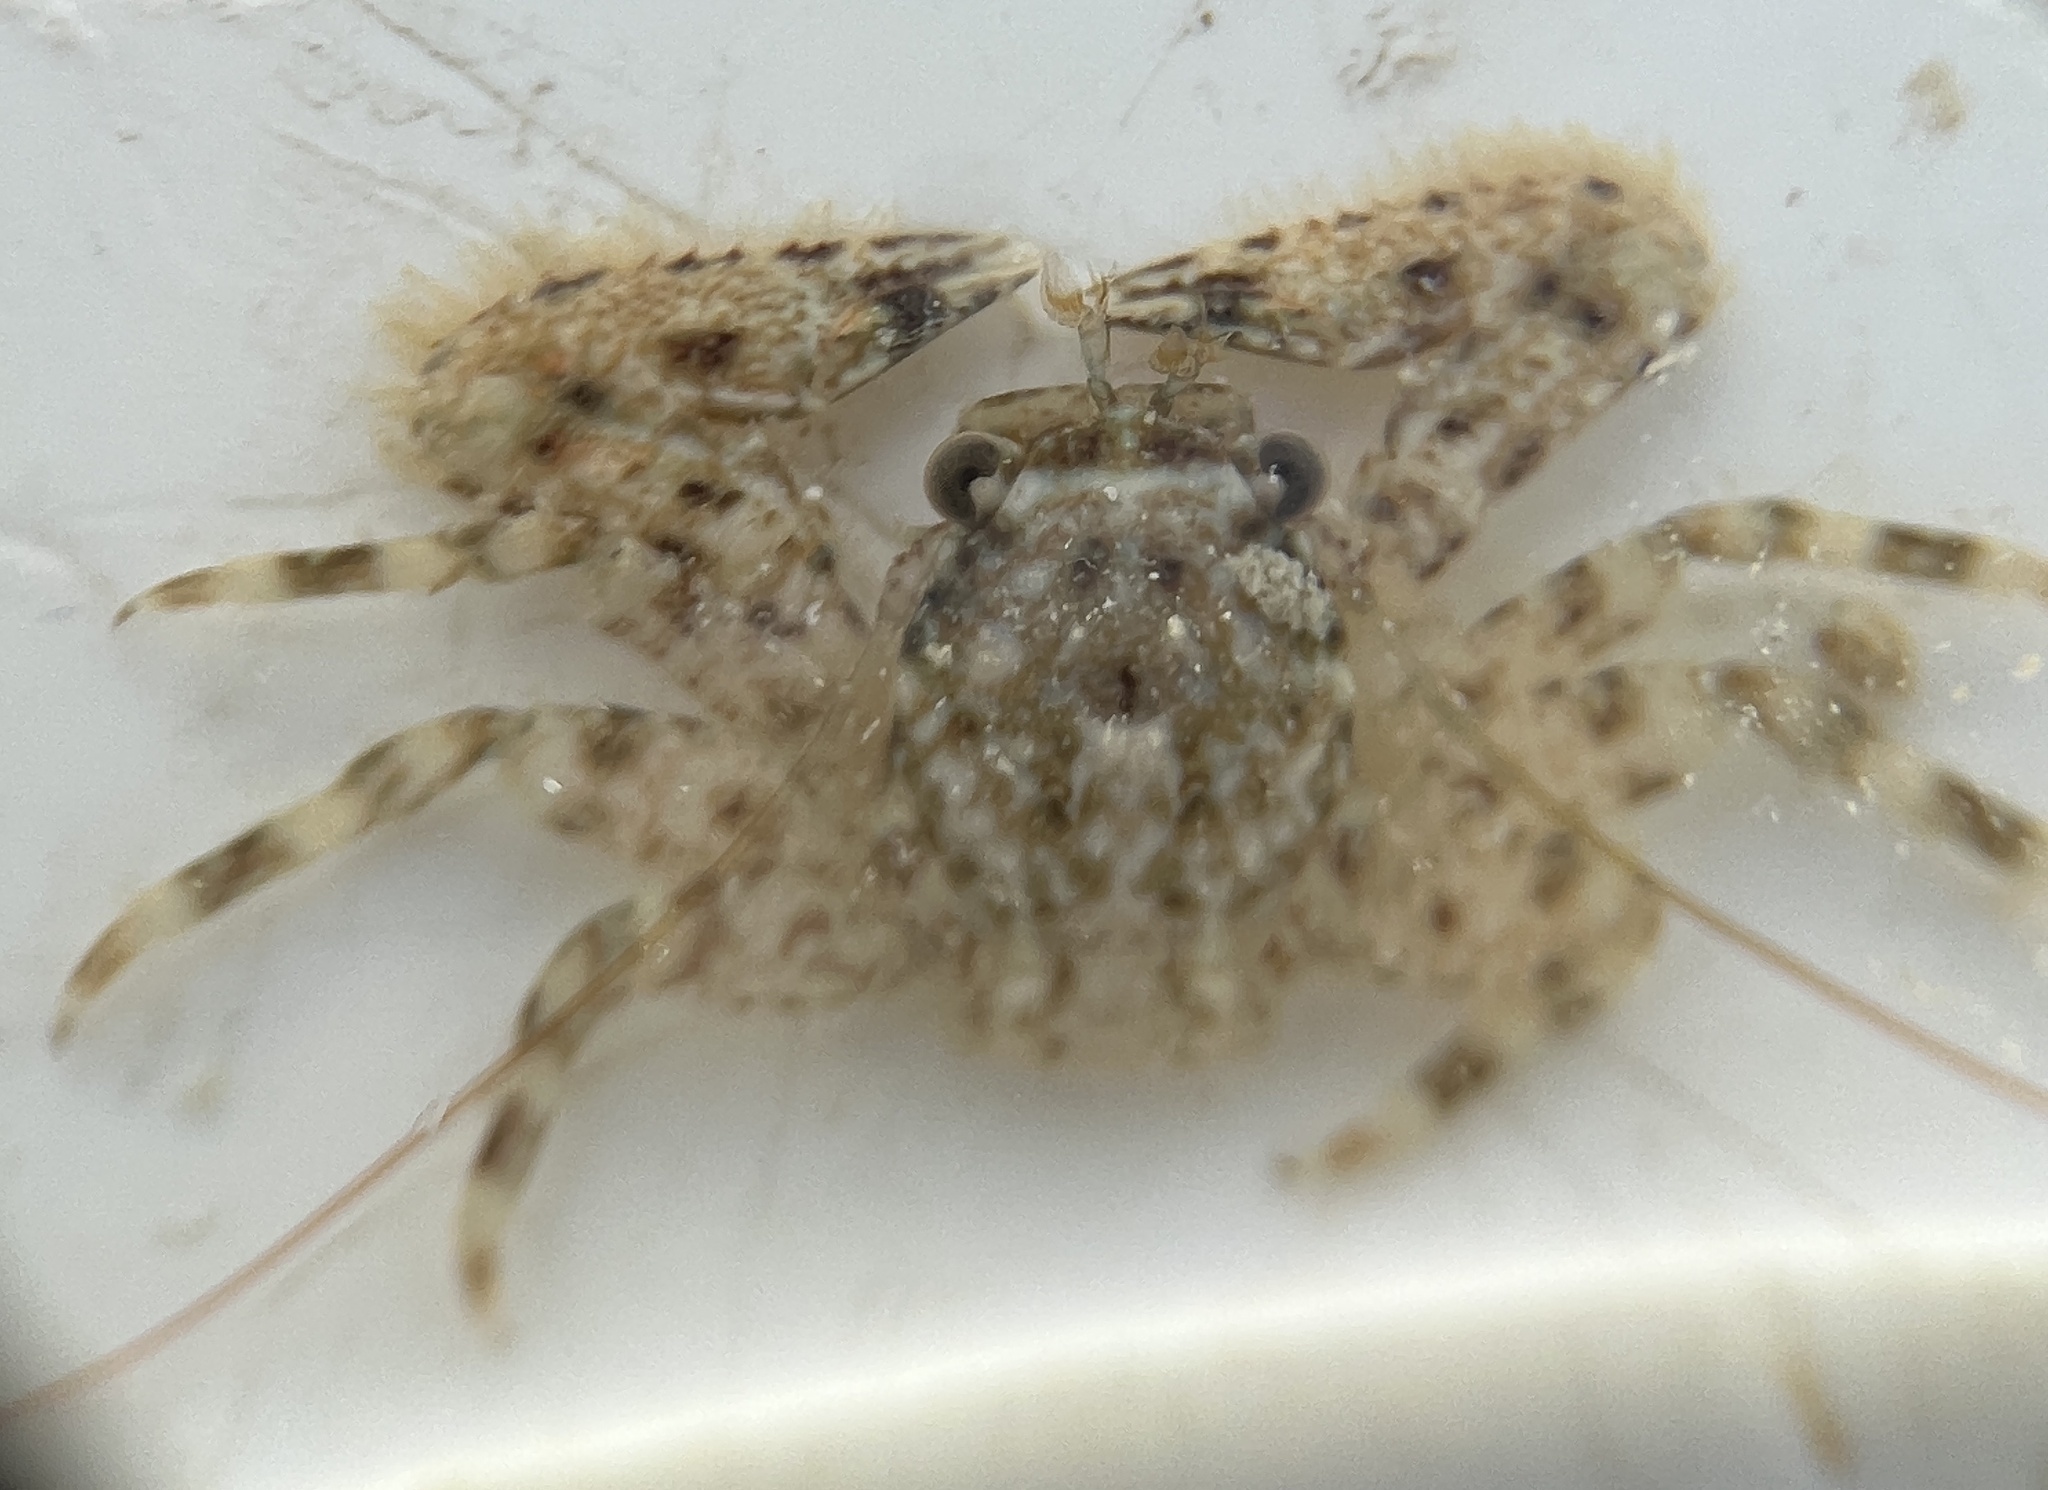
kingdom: Animalia
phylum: Arthropoda
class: Malacostraca
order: Decapoda
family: Porcellanidae
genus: Petrolisthes
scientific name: Petrolisthes armatus
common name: Green porcelain crab
